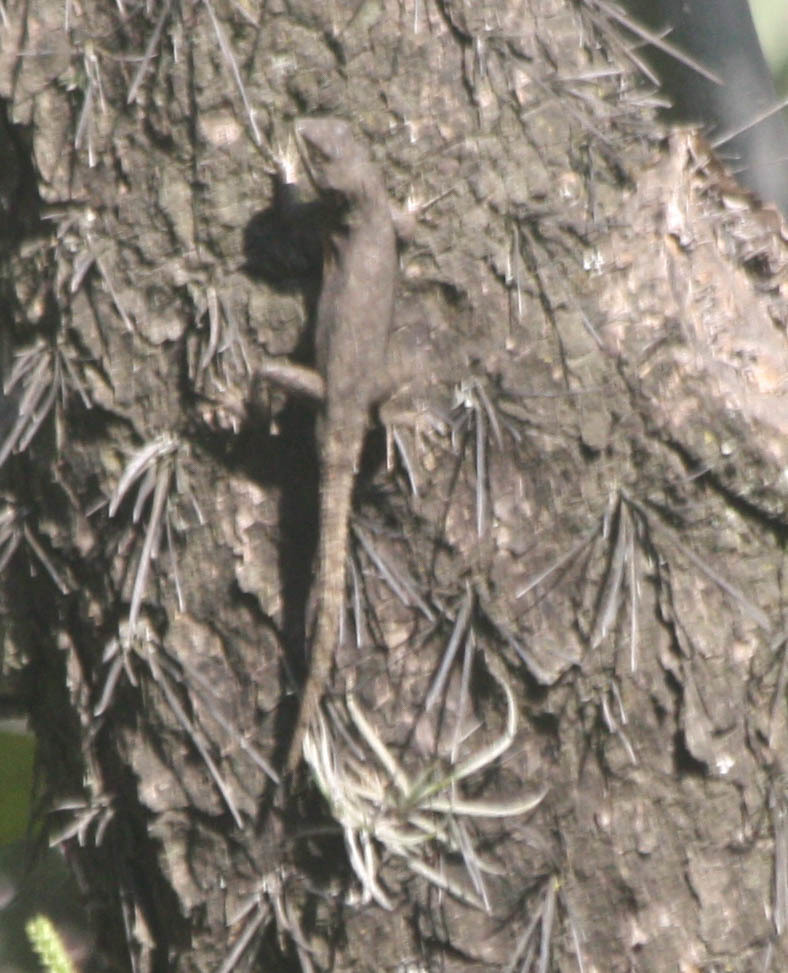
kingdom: Animalia
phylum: Chordata
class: Squamata
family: Phrynosomatidae
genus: Sceloporus
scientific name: Sceloporus grammicus
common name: Mesquite lizard
